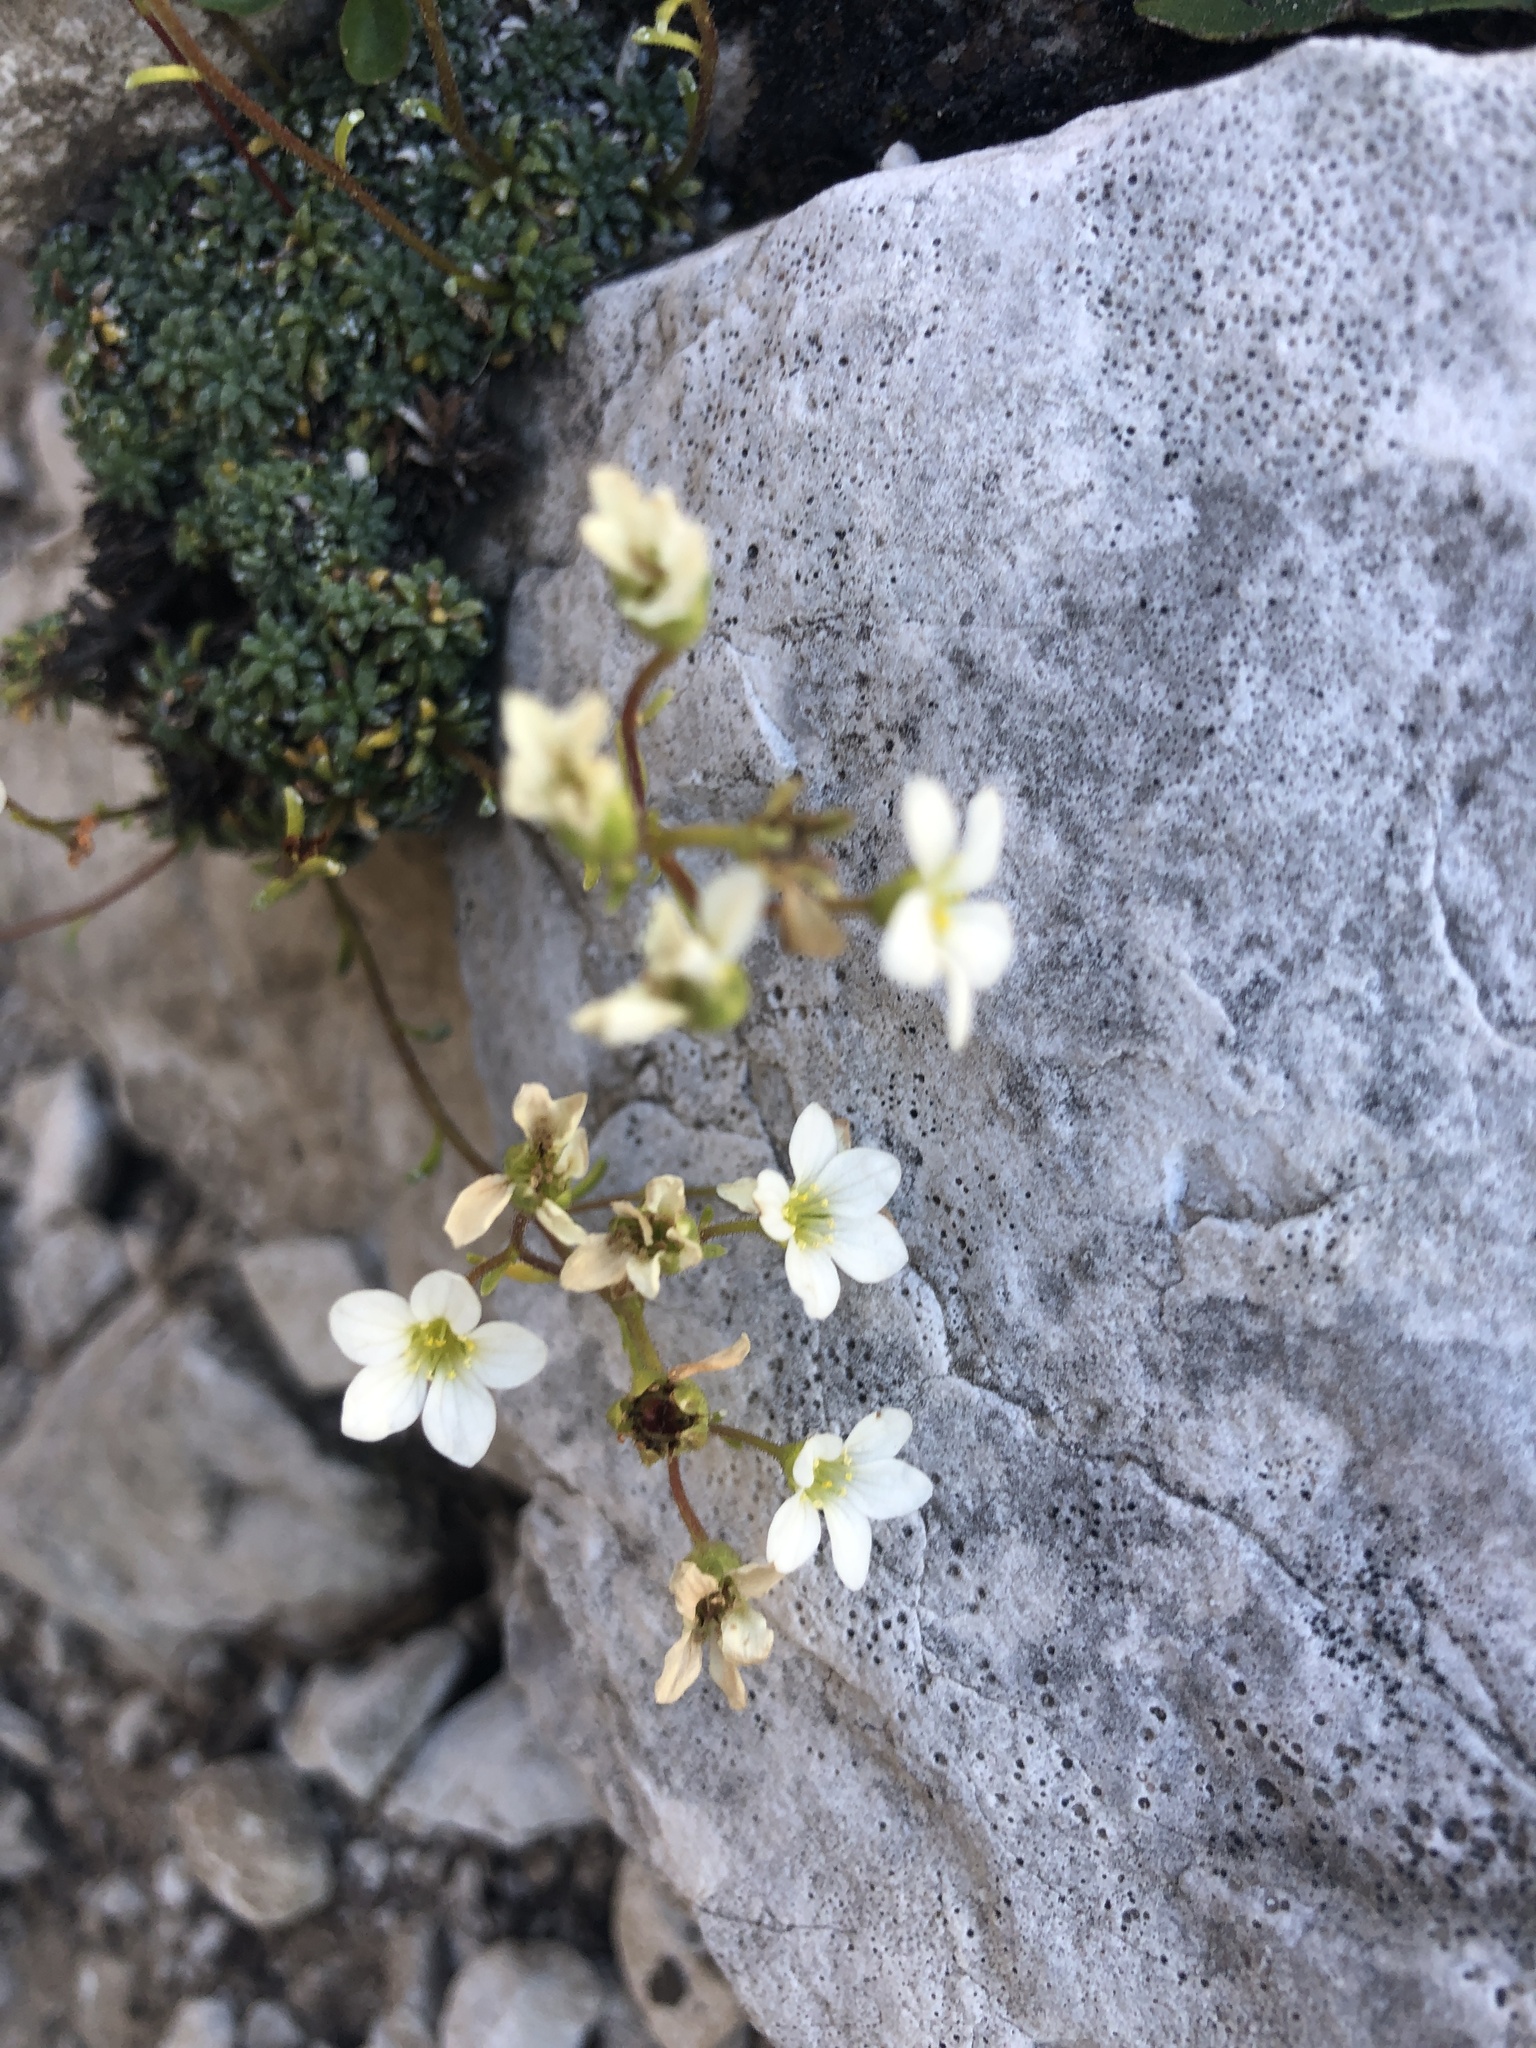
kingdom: Plantae
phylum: Tracheophyta
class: Magnoliopsida
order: Saxifragales
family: Saxifragaceae
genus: Saxifraga
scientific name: Saxifraga caesia
